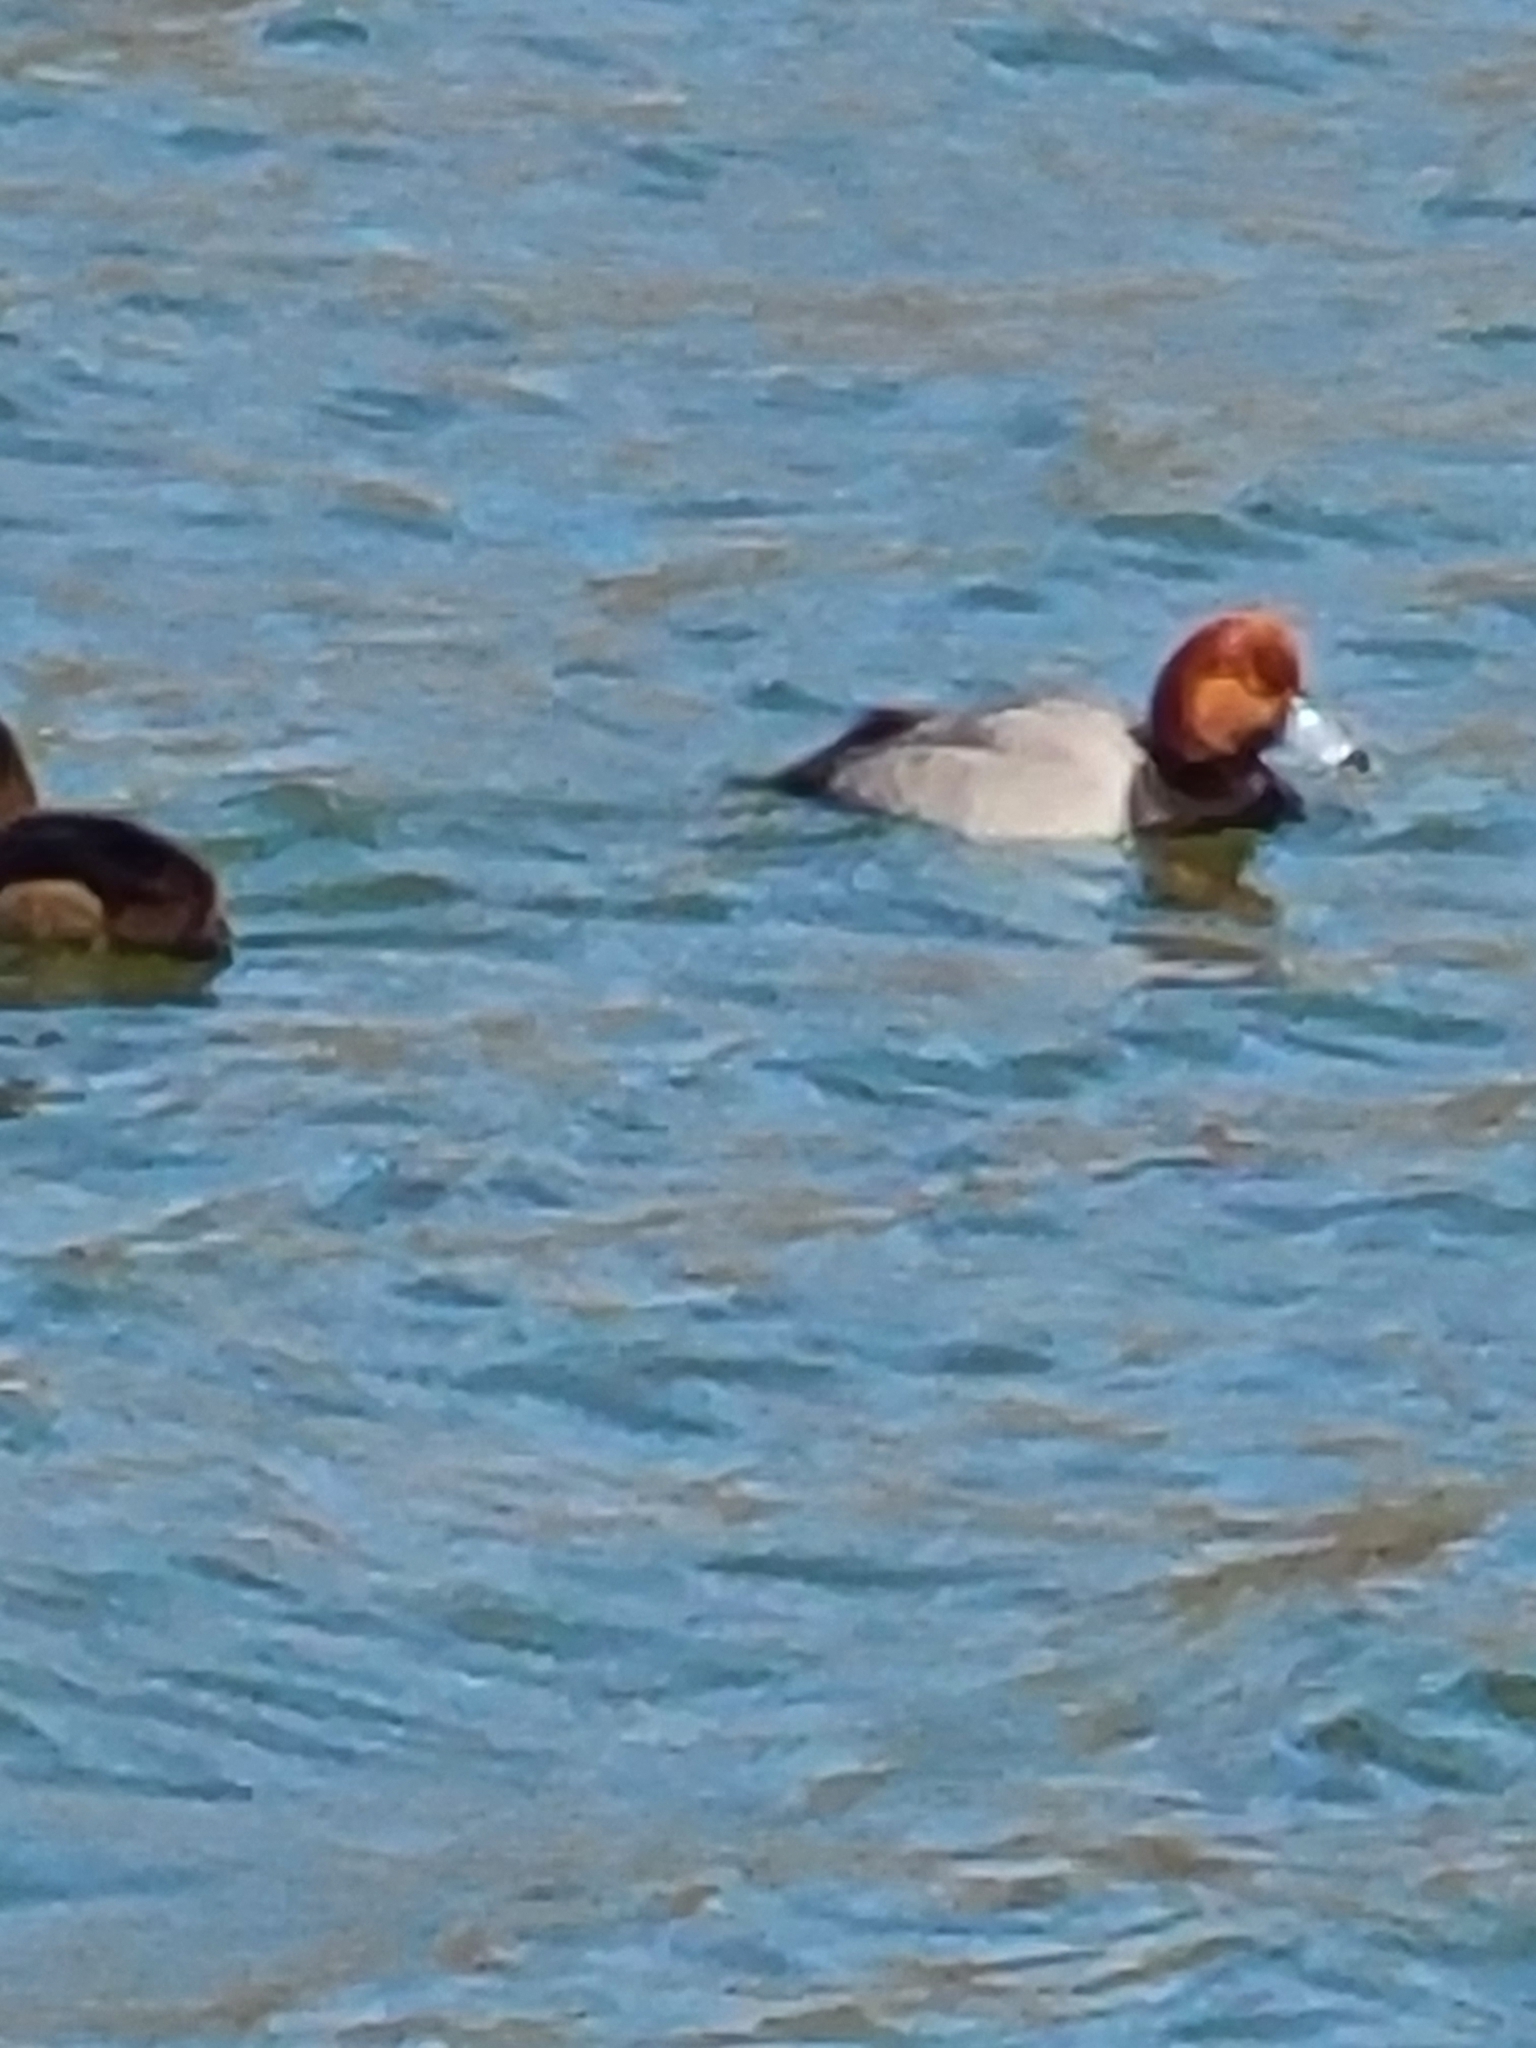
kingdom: Animalia
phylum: Chordata
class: Aves
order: Anseriformes
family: Anatidae
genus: Aythya
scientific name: Aythya americana
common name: Redhead
